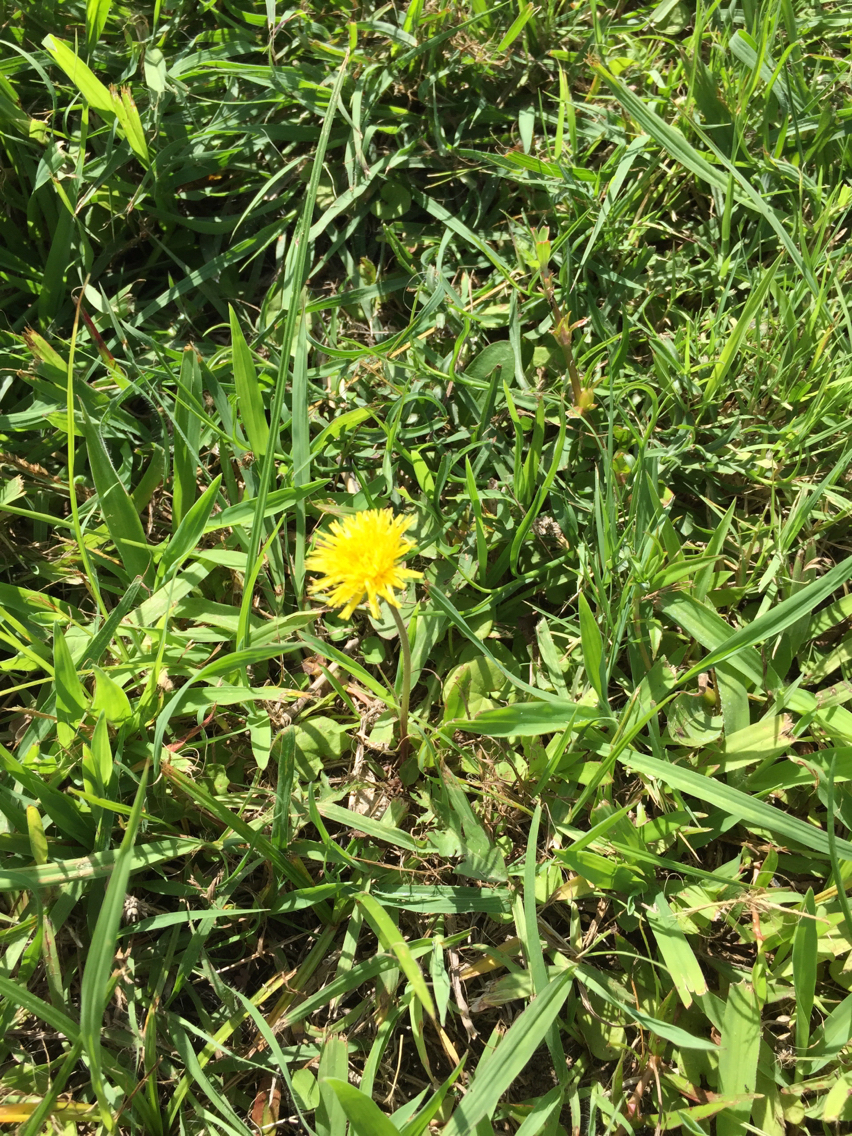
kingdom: Plantae
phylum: Tracheophyta
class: Magnoliopsida
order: Asterales
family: Asteraceae
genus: Taraxacum
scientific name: Taraxacum officinale
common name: Common dandelion
